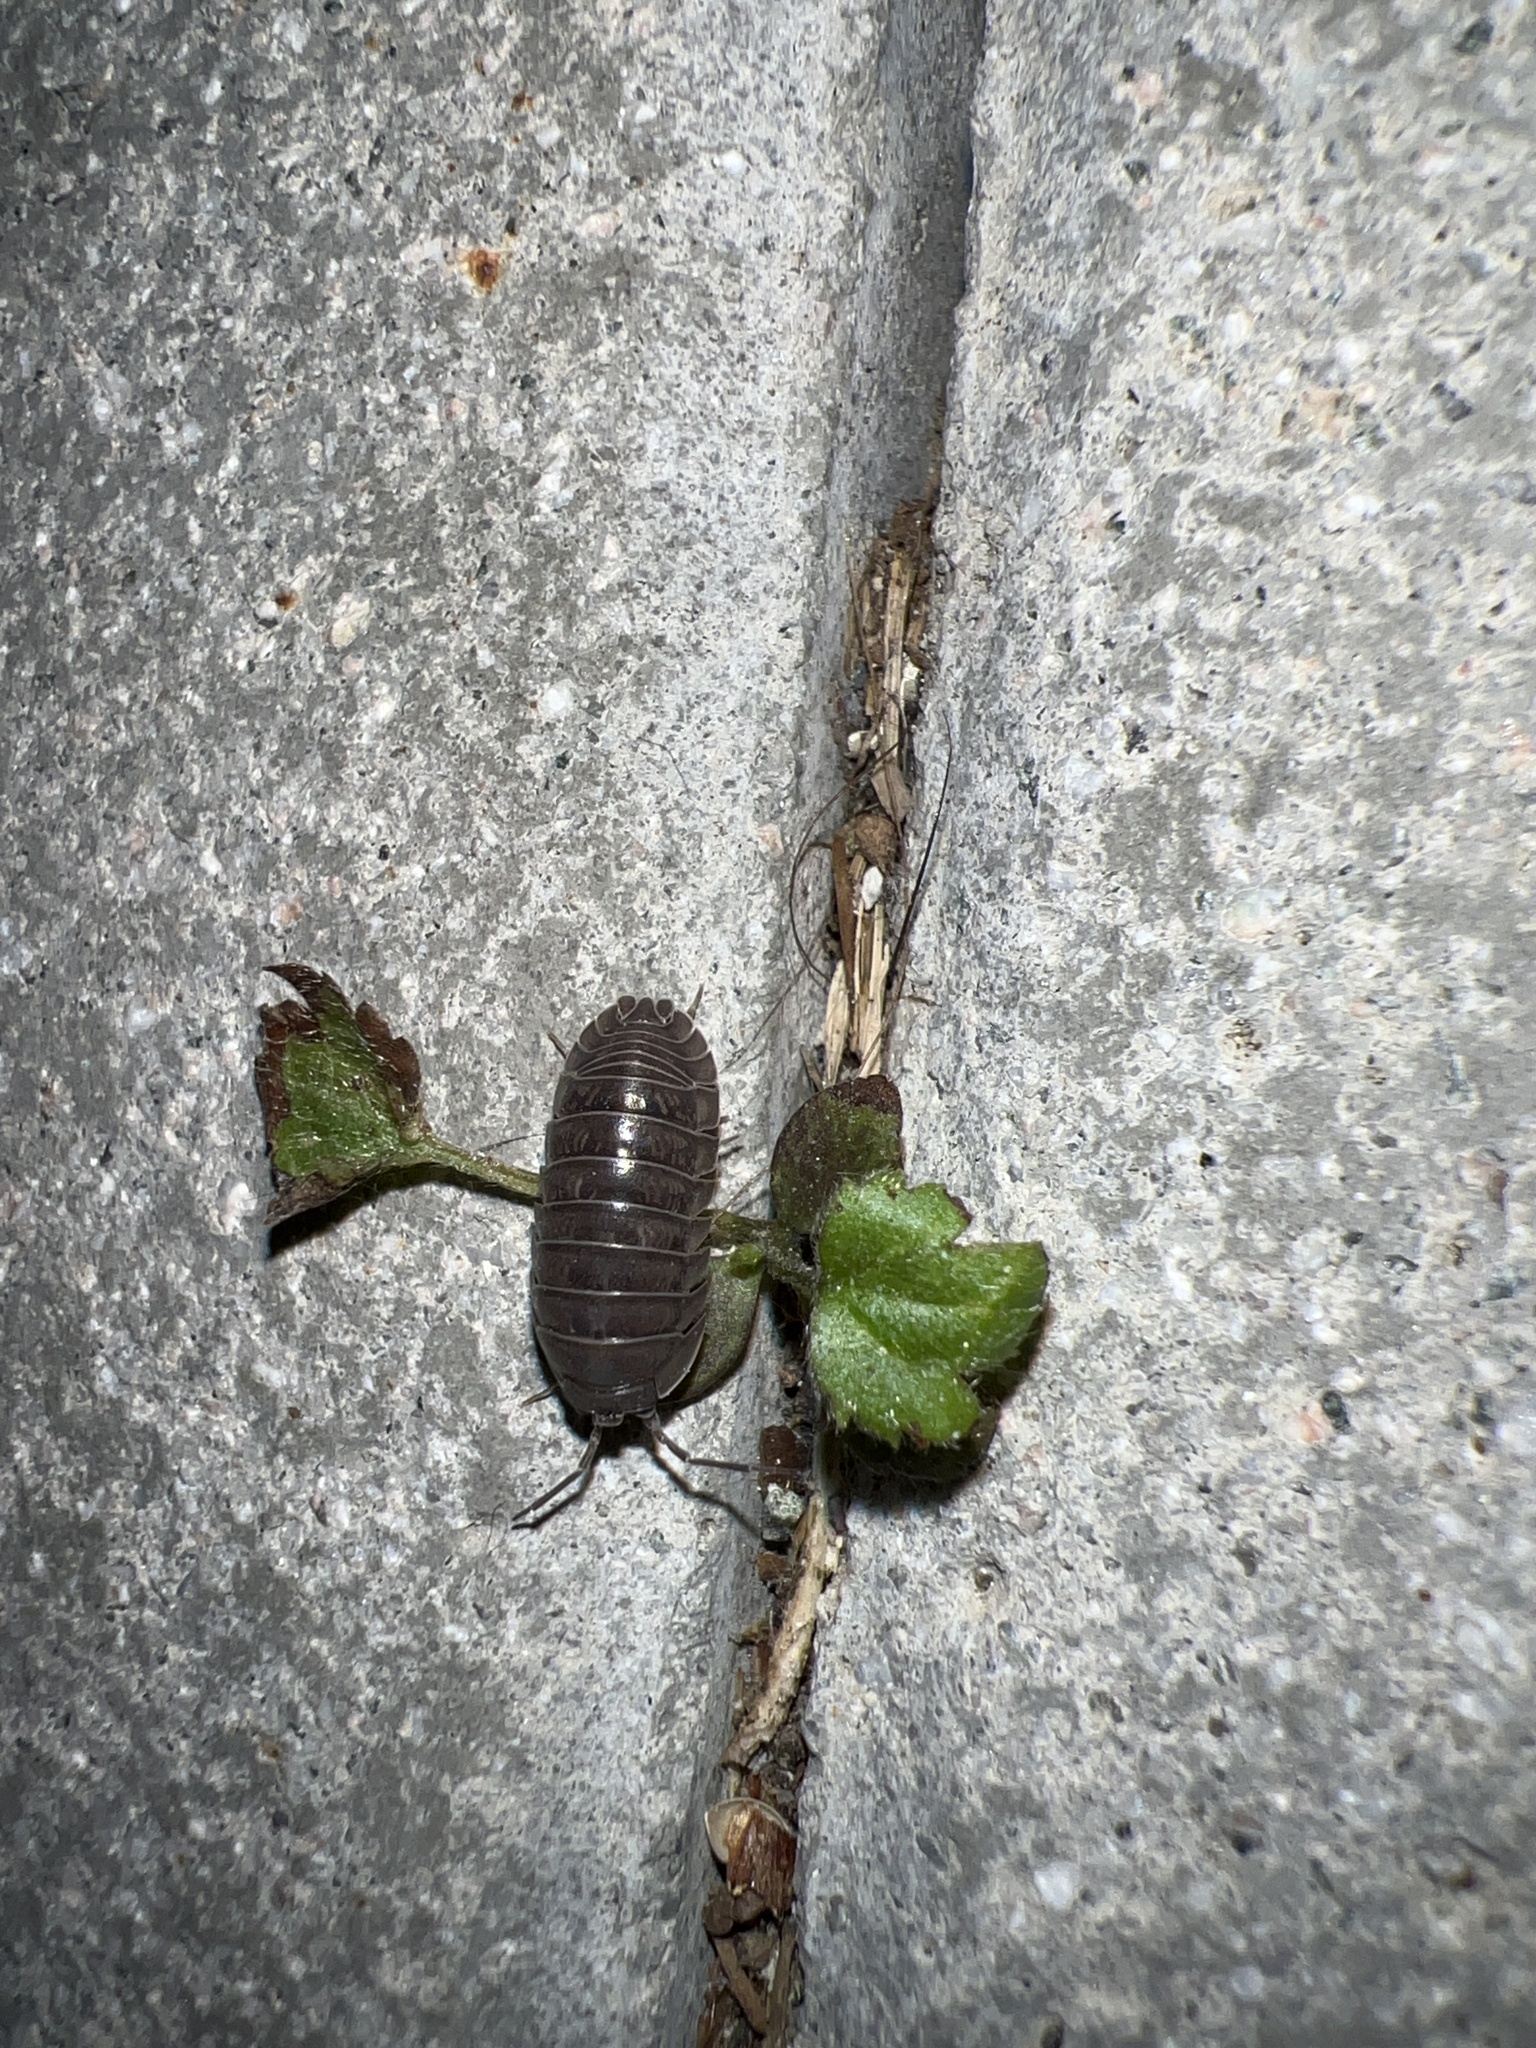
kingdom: Animalia
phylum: Arthropoda
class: Malacostraca
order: Isopoda
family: Armadillidiidae
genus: Armadillidium
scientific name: Armadillidium nasatum
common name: Isopod
